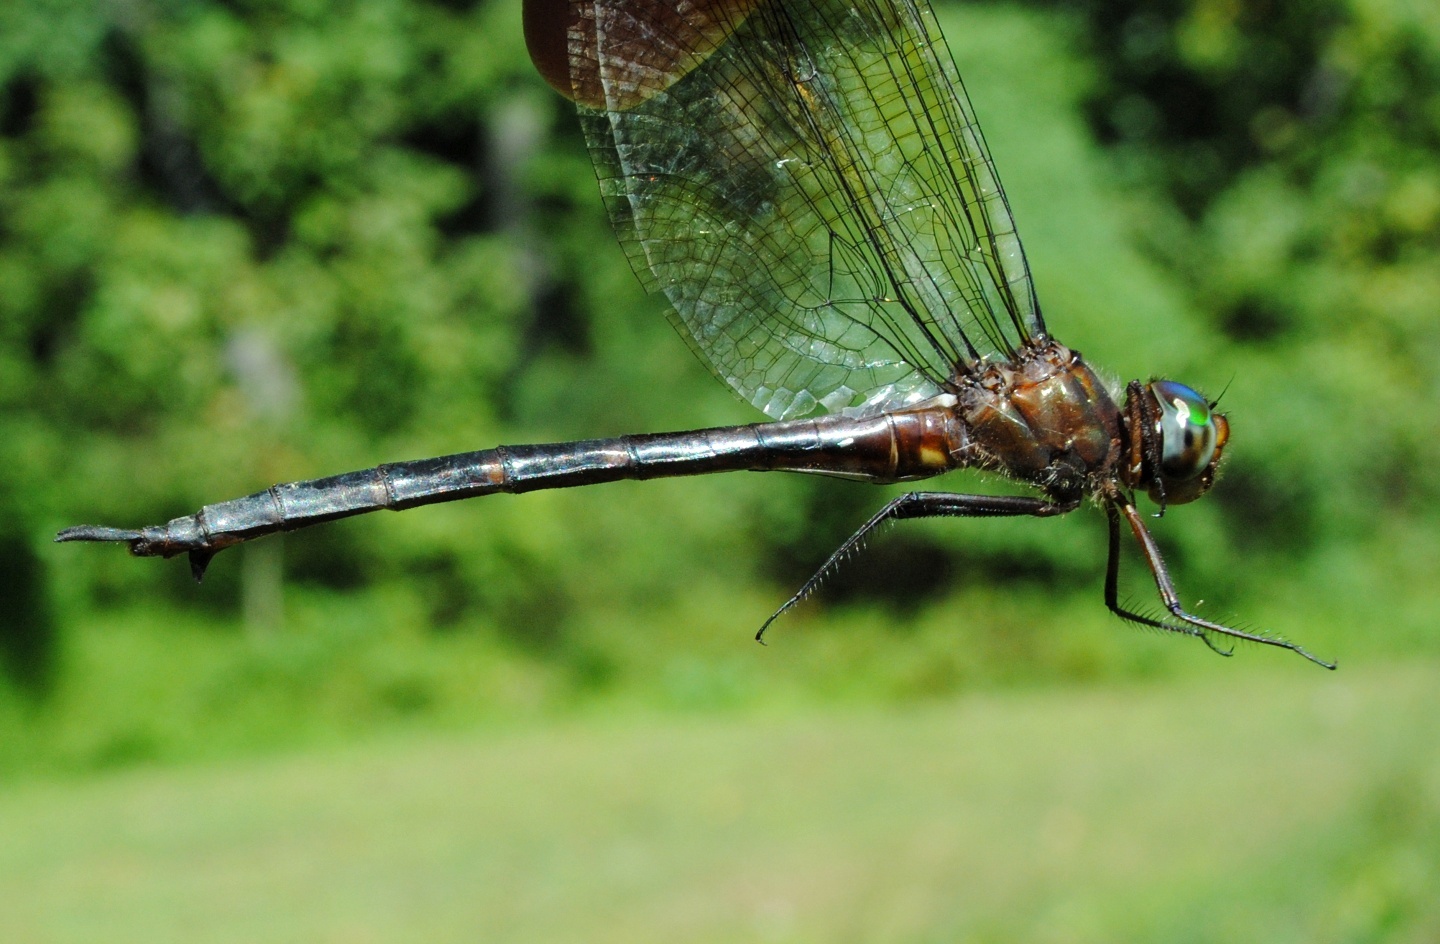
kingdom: Animalia
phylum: Arthropoda
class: Insecta
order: Odonata
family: Corduliidae
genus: Somatochlora
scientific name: Somatochlora linearis
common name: Mocha emerald
